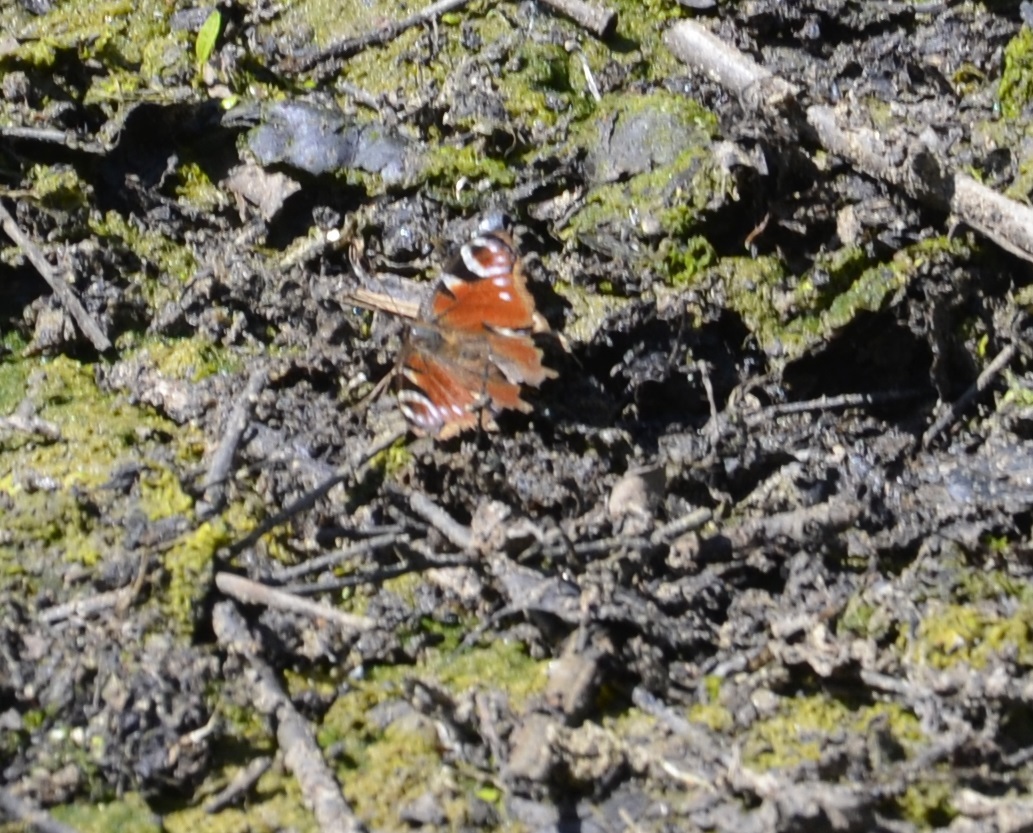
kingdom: Animalia
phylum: Arthropoda
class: Insecta
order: Lepidoptera
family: Nymphalidae
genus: Aglais
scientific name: Aglais io
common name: Peacock
